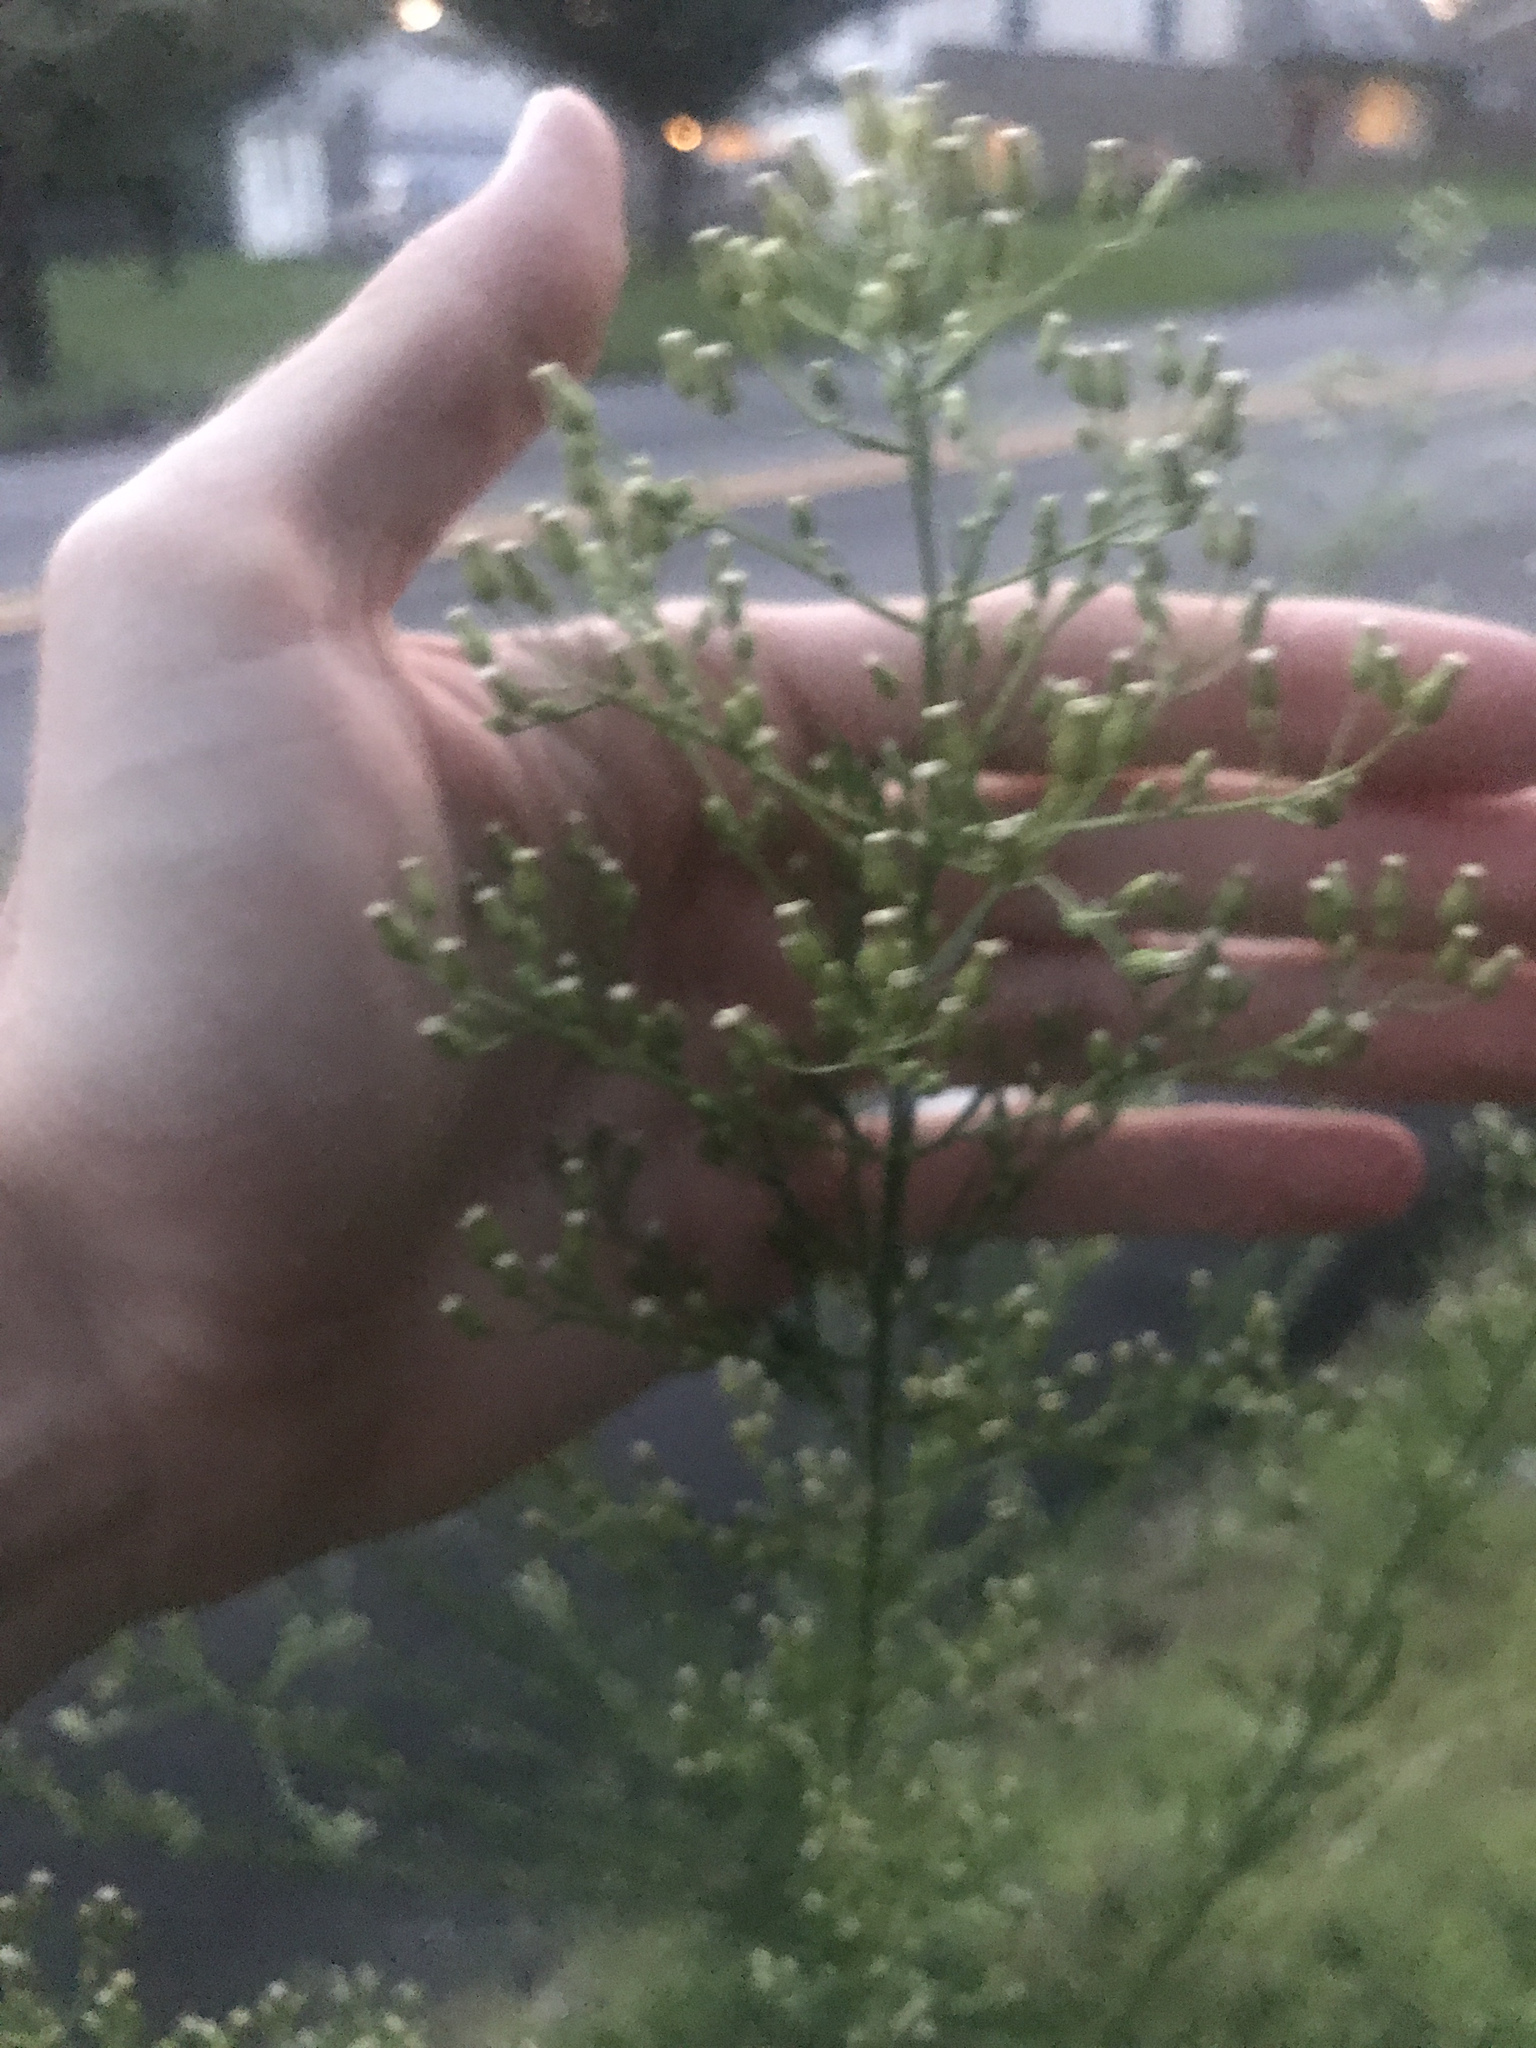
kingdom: Plantae
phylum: Tracheophyta
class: Magnoliopsida
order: Asterales
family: Asteraceae
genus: Erigeron
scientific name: Erigeron canadensis
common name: Canadian fleabane
